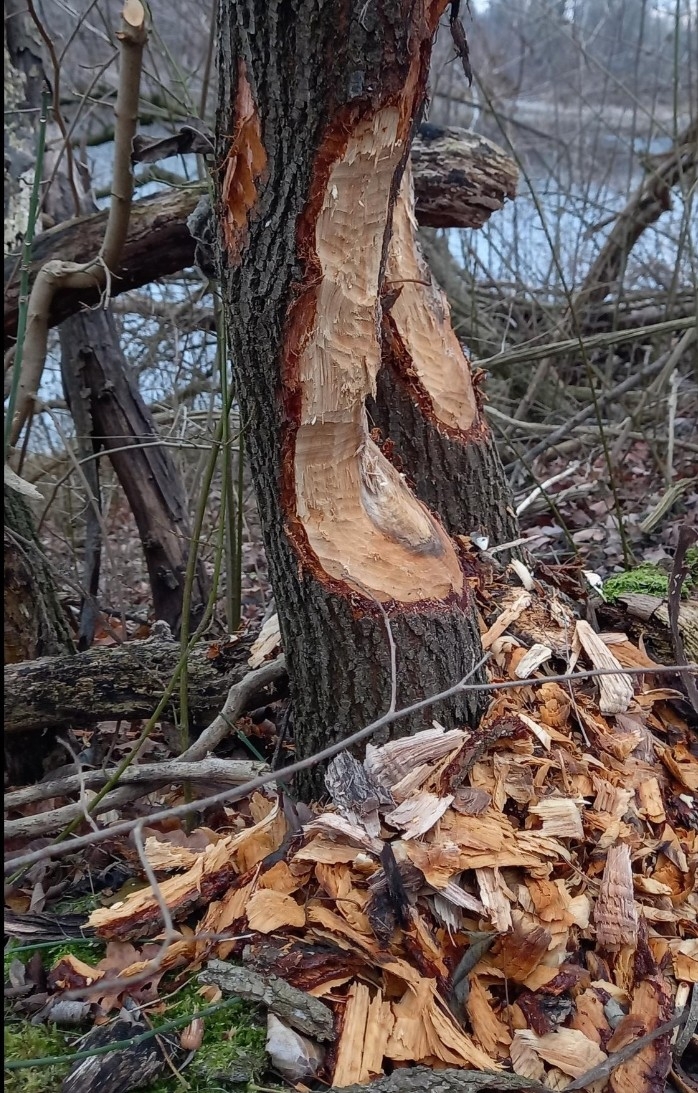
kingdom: Animalia
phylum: Chordata
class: Mammalia
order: Rodentia
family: Castoridae
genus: Castor
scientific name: Castor fiber
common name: Eurasian beaver
